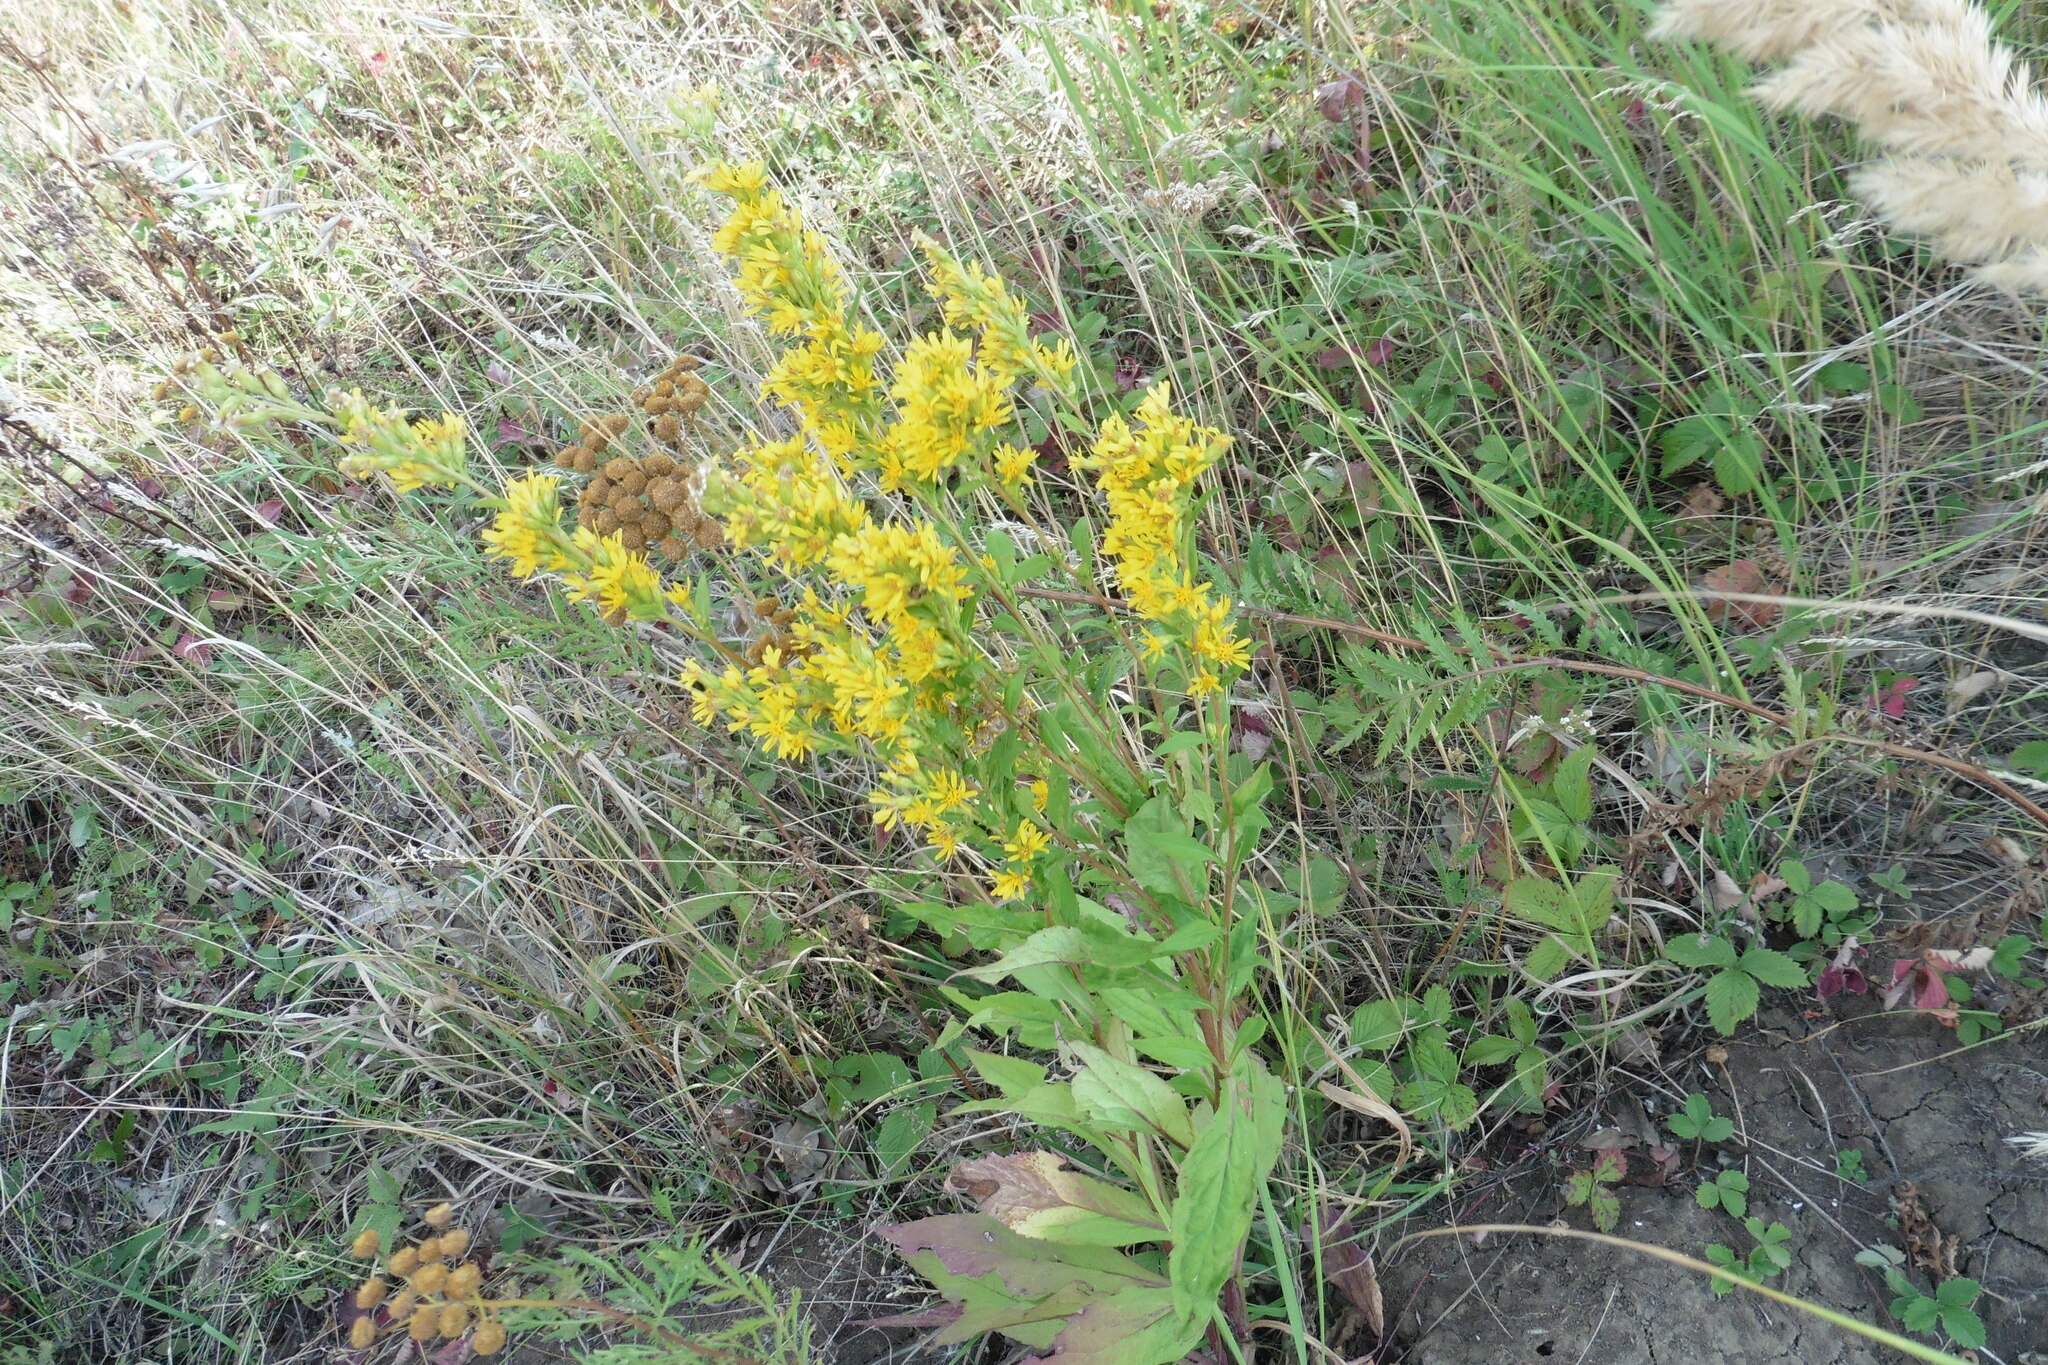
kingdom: Plantae
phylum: Tracheophyta
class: Magnoliopsida
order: Asterales
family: Asteraceae
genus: Solidago
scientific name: Solidago virgaurea
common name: Goldenrod
